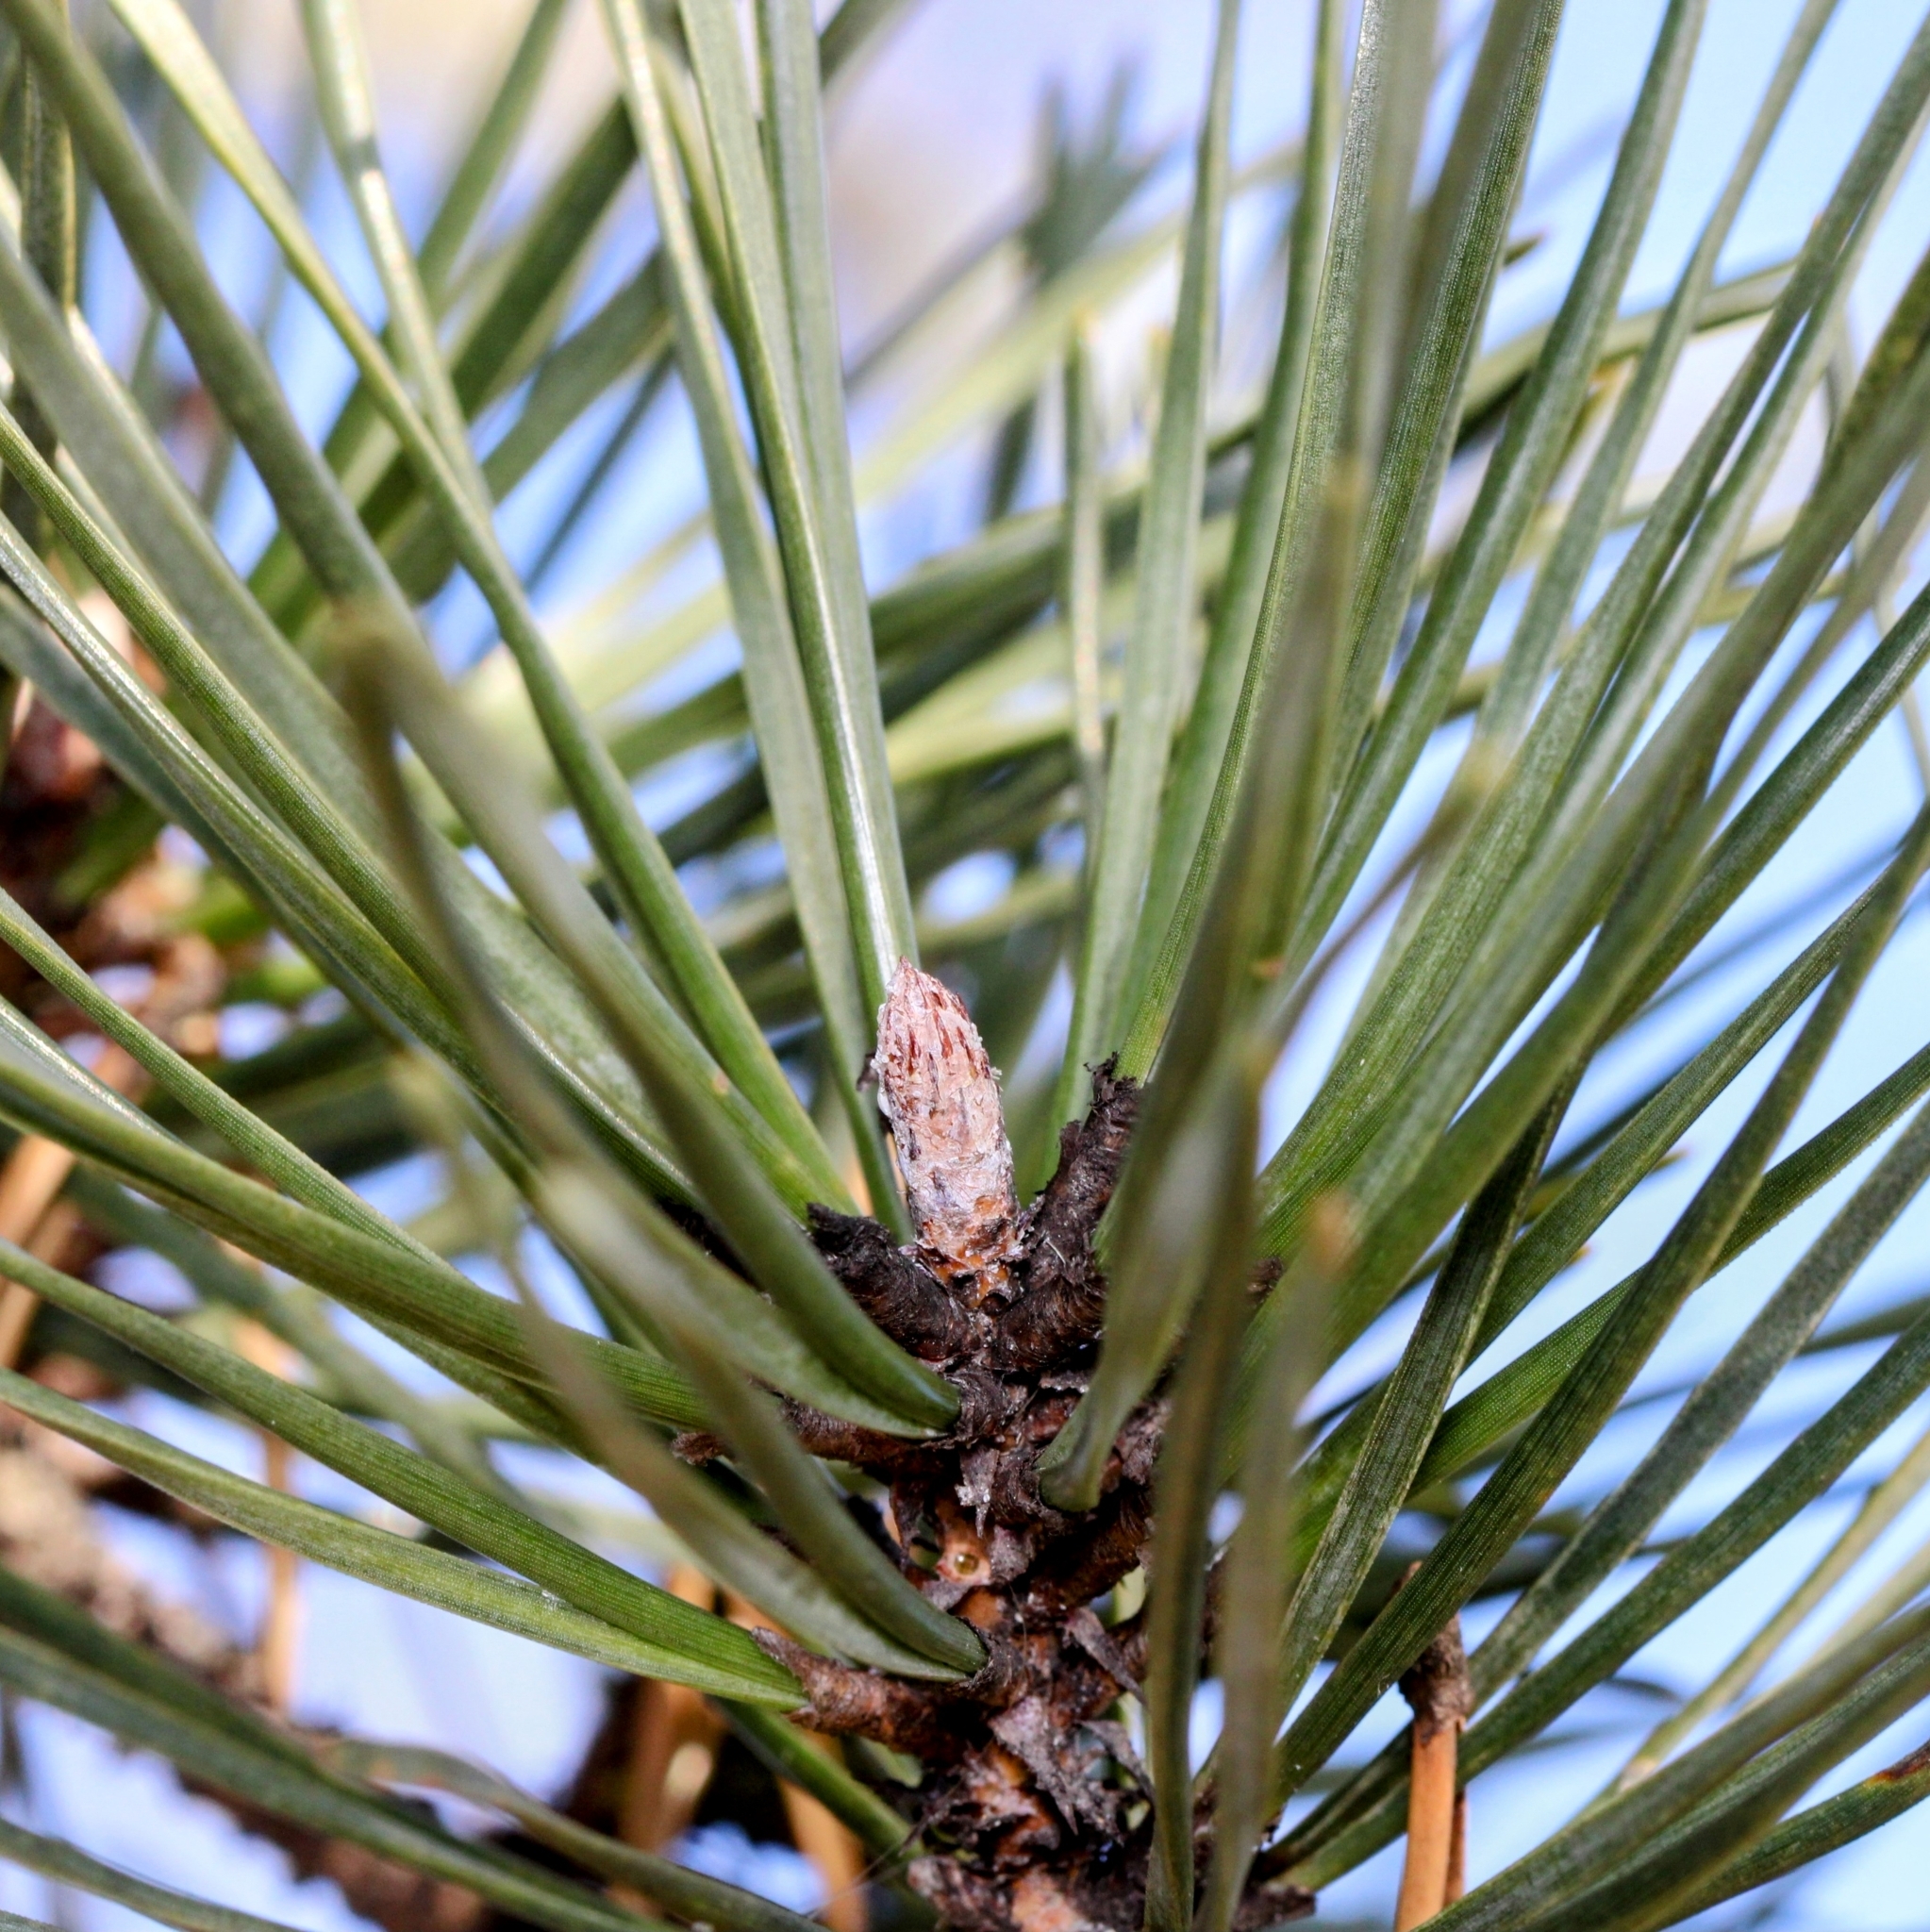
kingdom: Plantae
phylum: Tracheophyta
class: Pinopsida
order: Pinales
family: Pinaceae
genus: Pinus
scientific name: Pinus pungens
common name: Hickory pine
